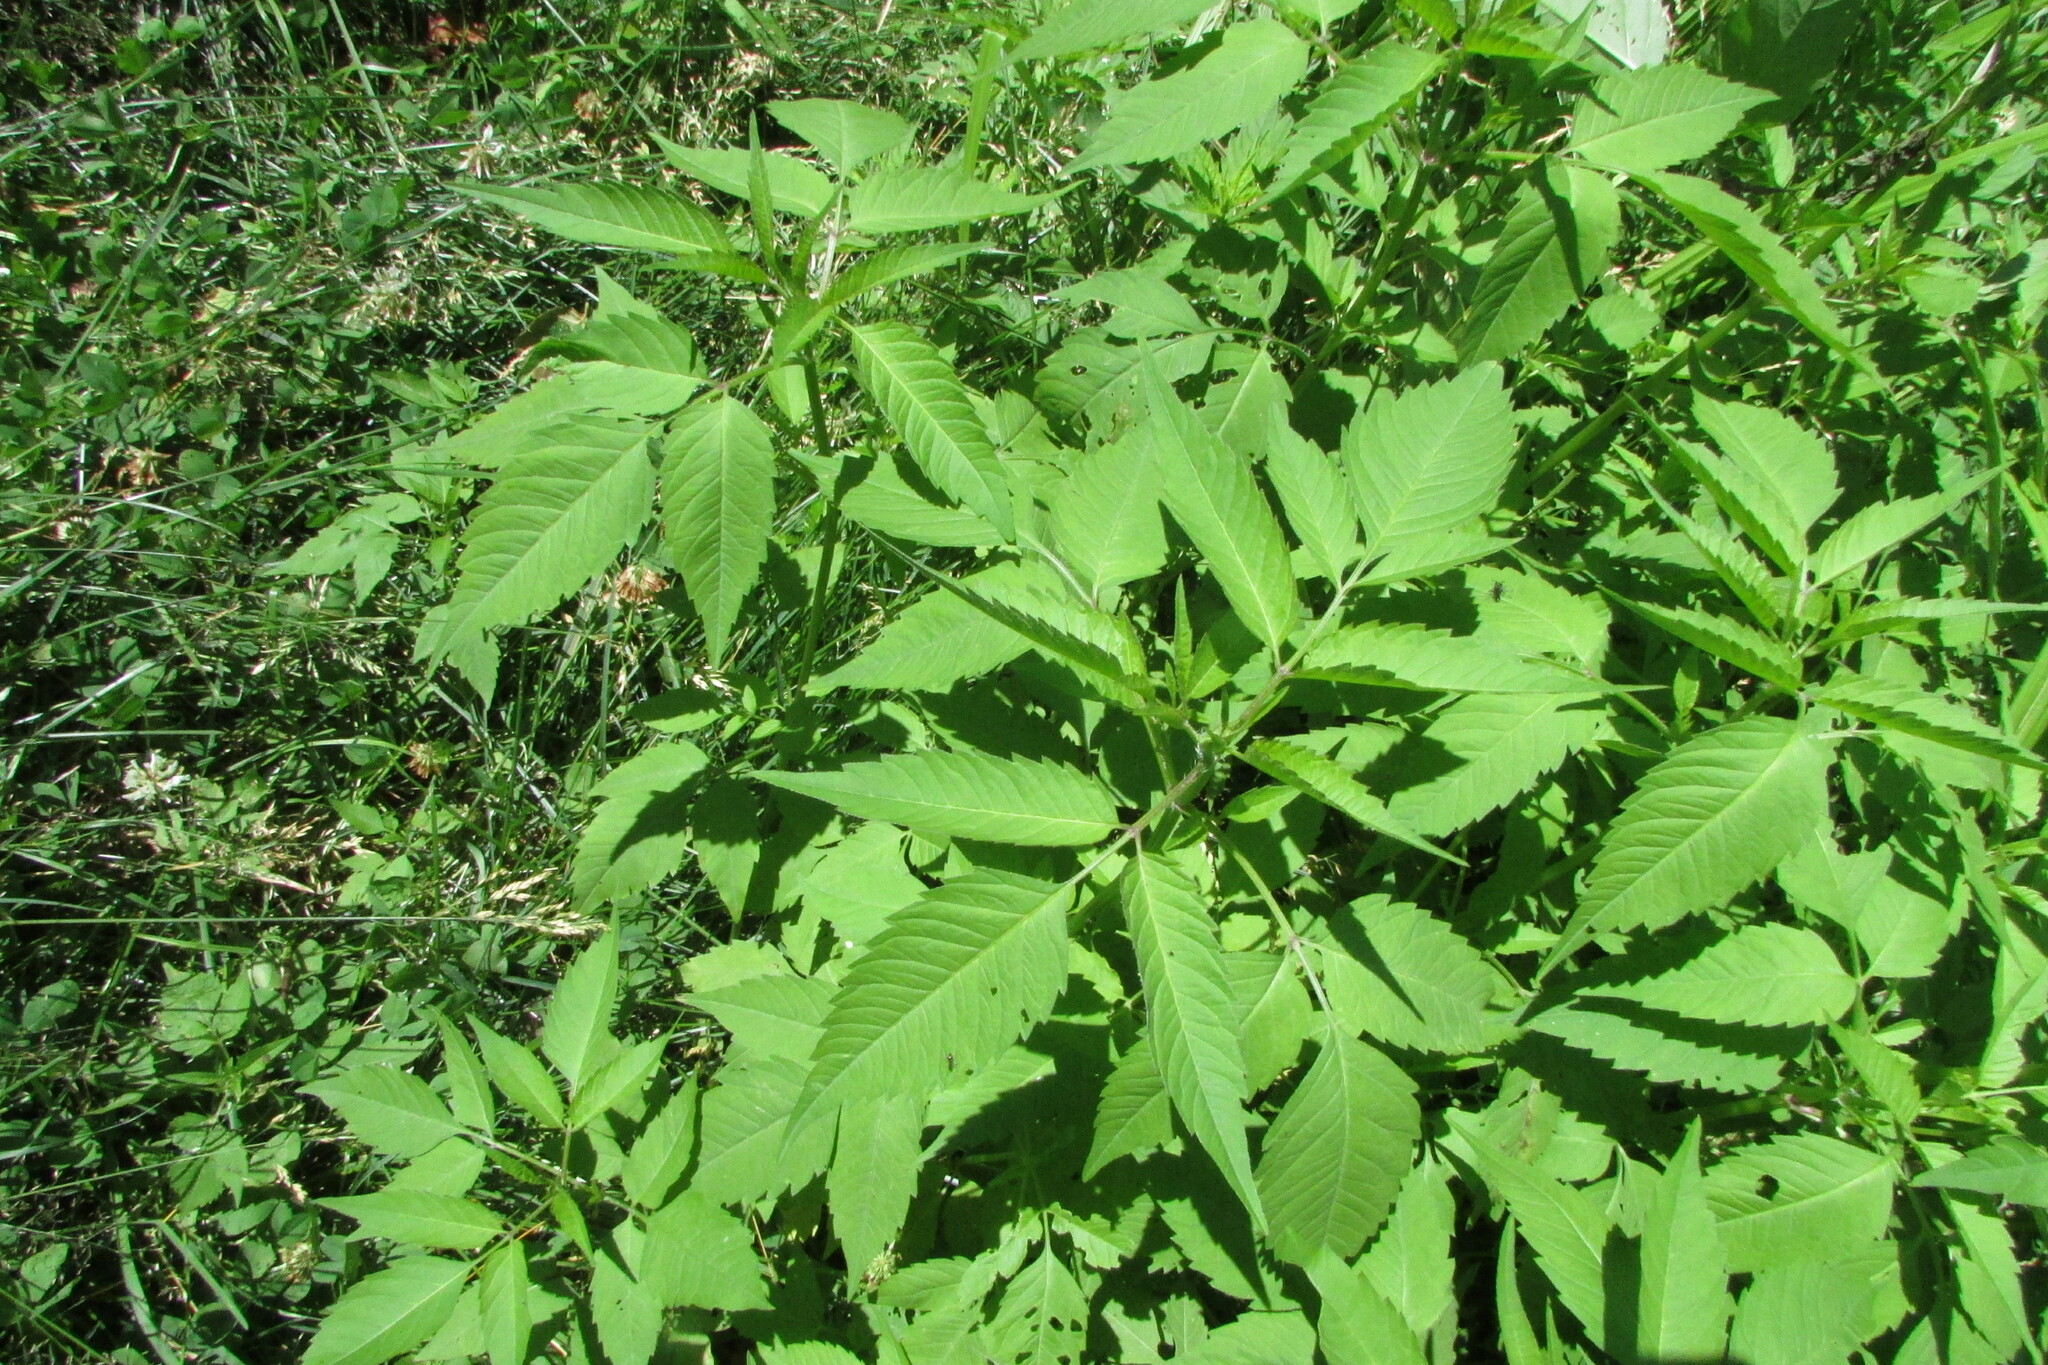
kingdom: Plantae
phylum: Tracheophyta
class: Magnoliopsida
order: Asterales
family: Asteraceae
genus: Bidens
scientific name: Bidens frondosa
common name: Beggarticks
